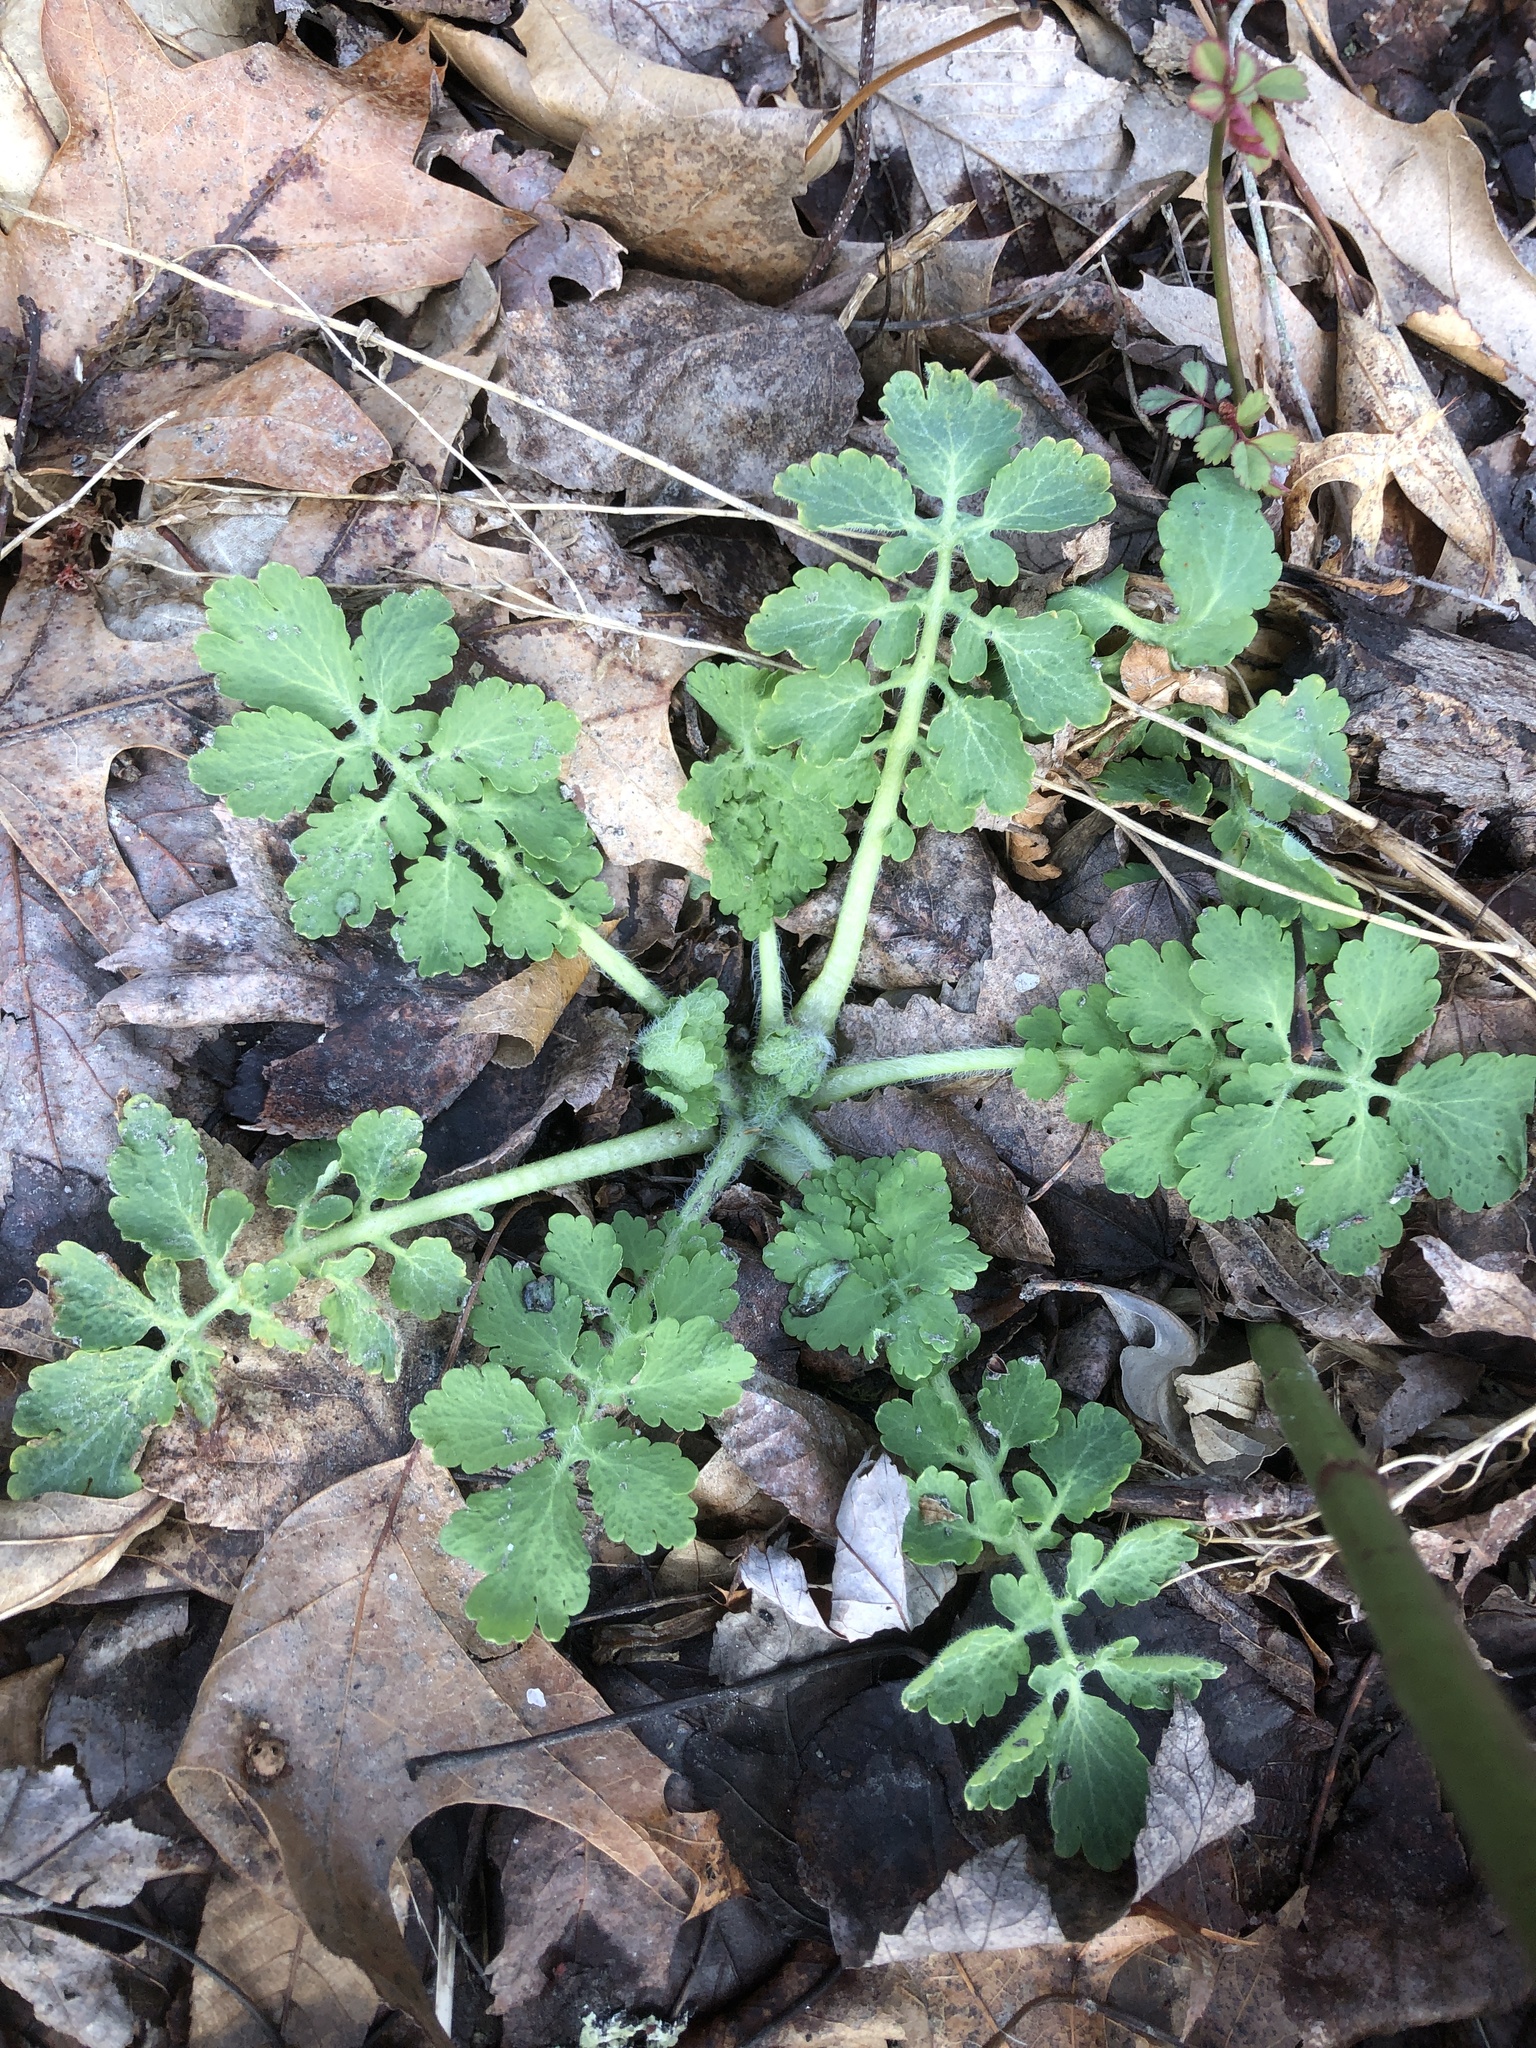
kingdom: Plantae
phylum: Tracheophyta
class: Magnoliopsida
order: Ranunculales
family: Papaveraceae
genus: Chelidonium
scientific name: Chelidonium majus
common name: Greater celandine
